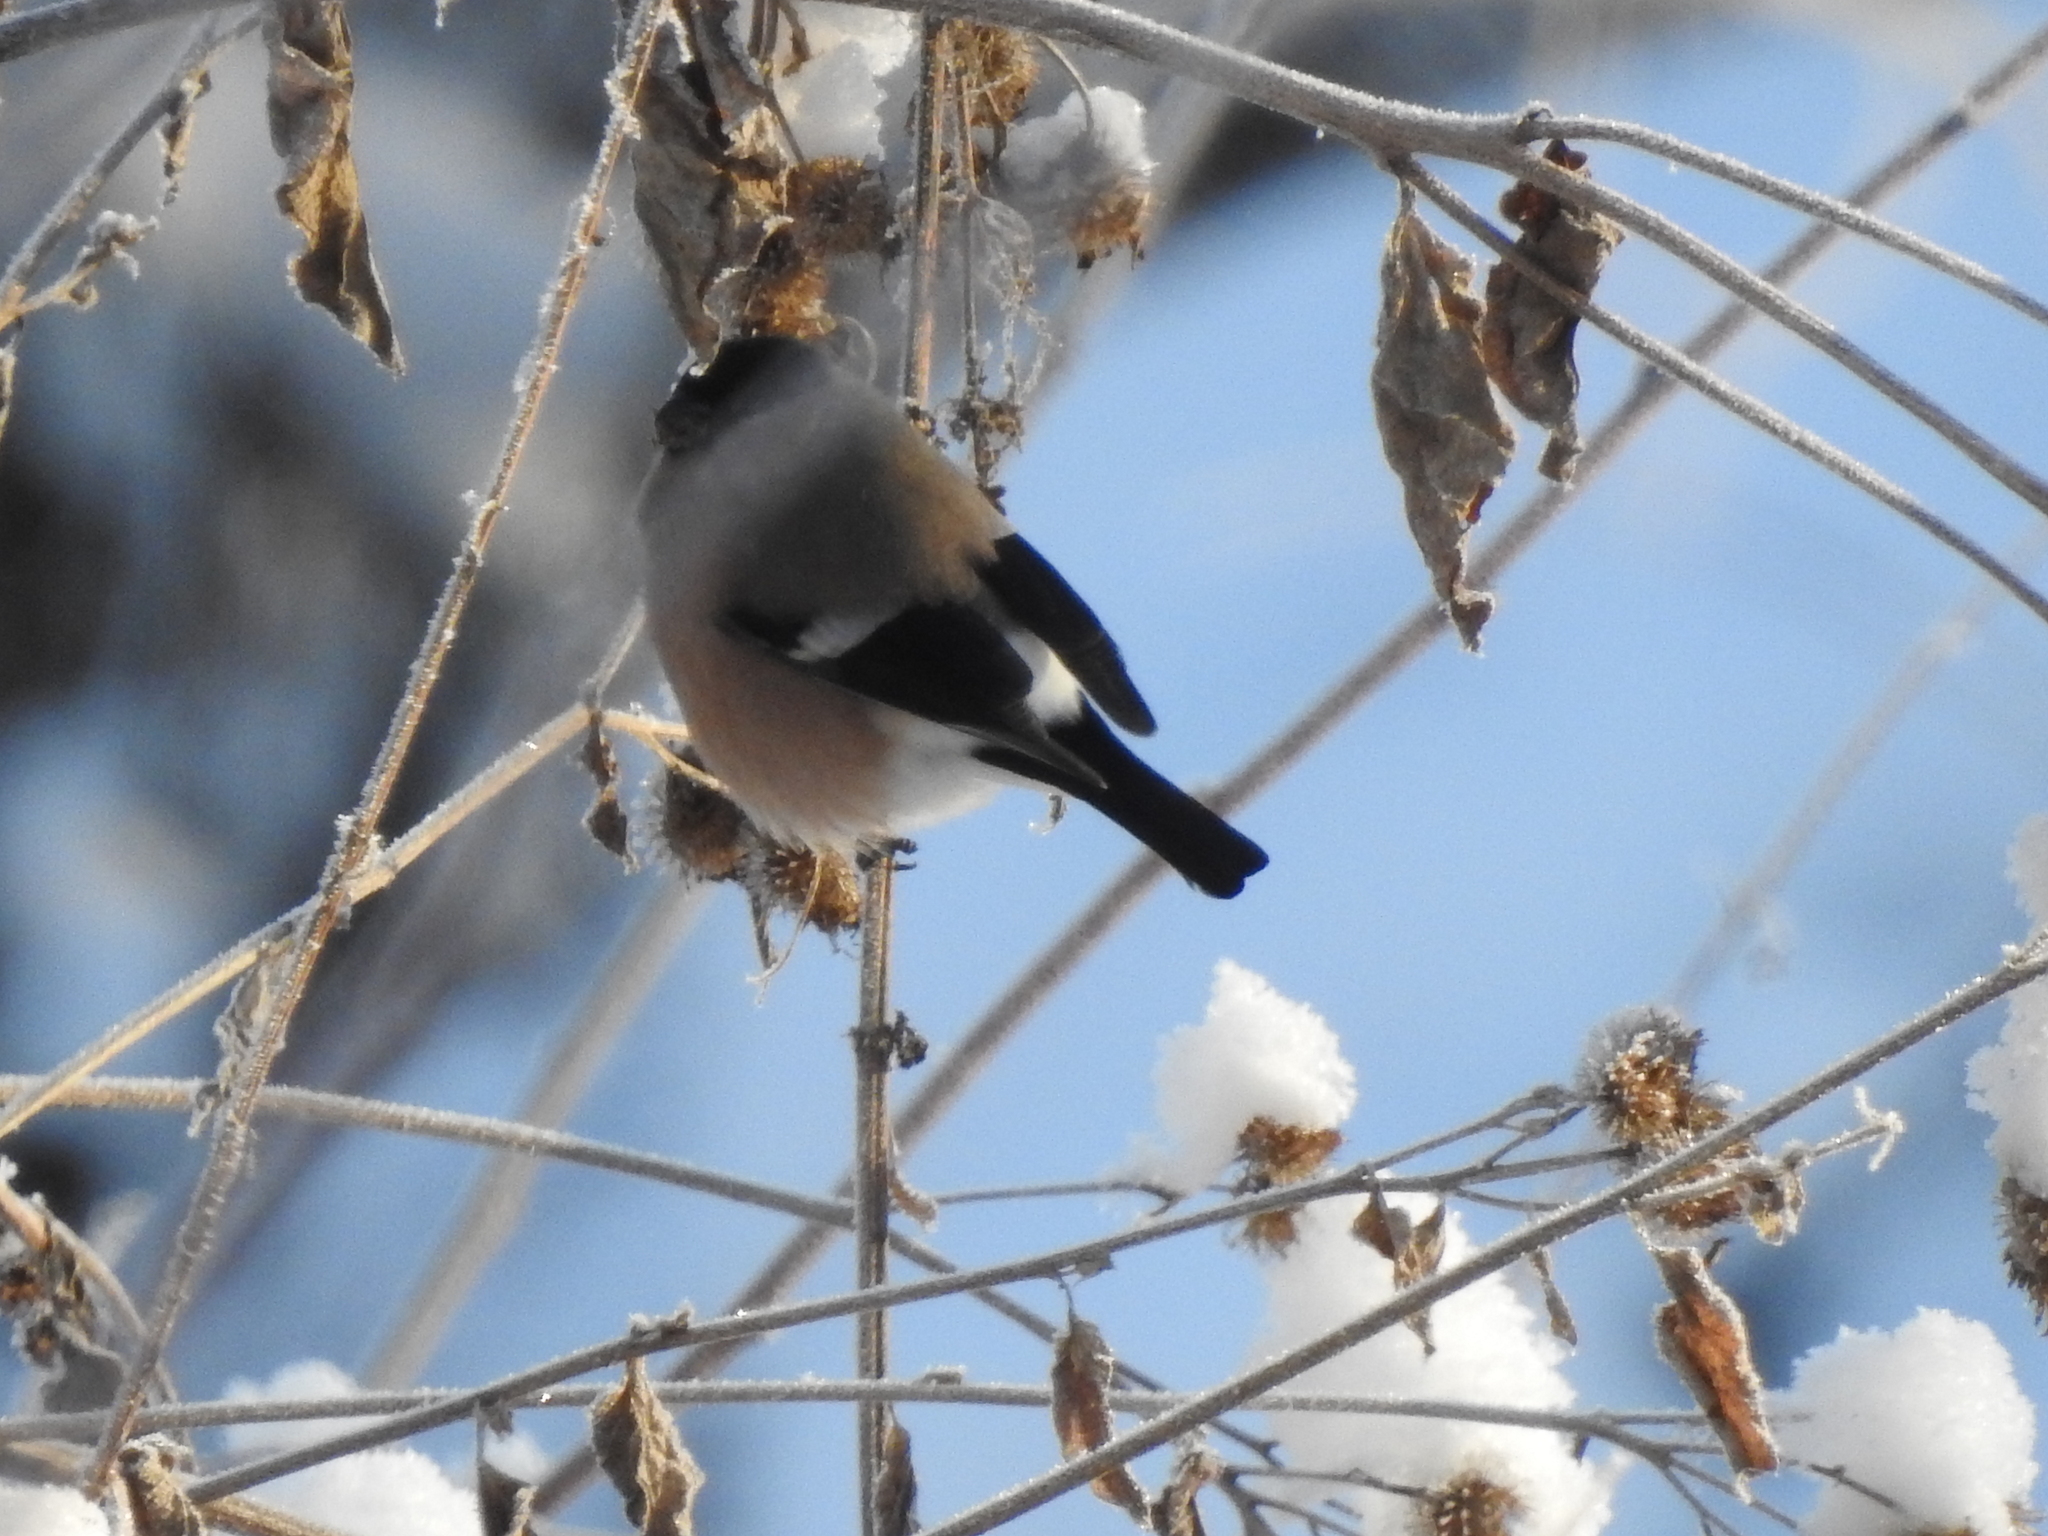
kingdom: Animalia
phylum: Chordata
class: Aves
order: Passeriformes
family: Fringillidae
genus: Pyrrhula
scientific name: Pyrrhula pyrrhula
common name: Eurasian bullfinch
